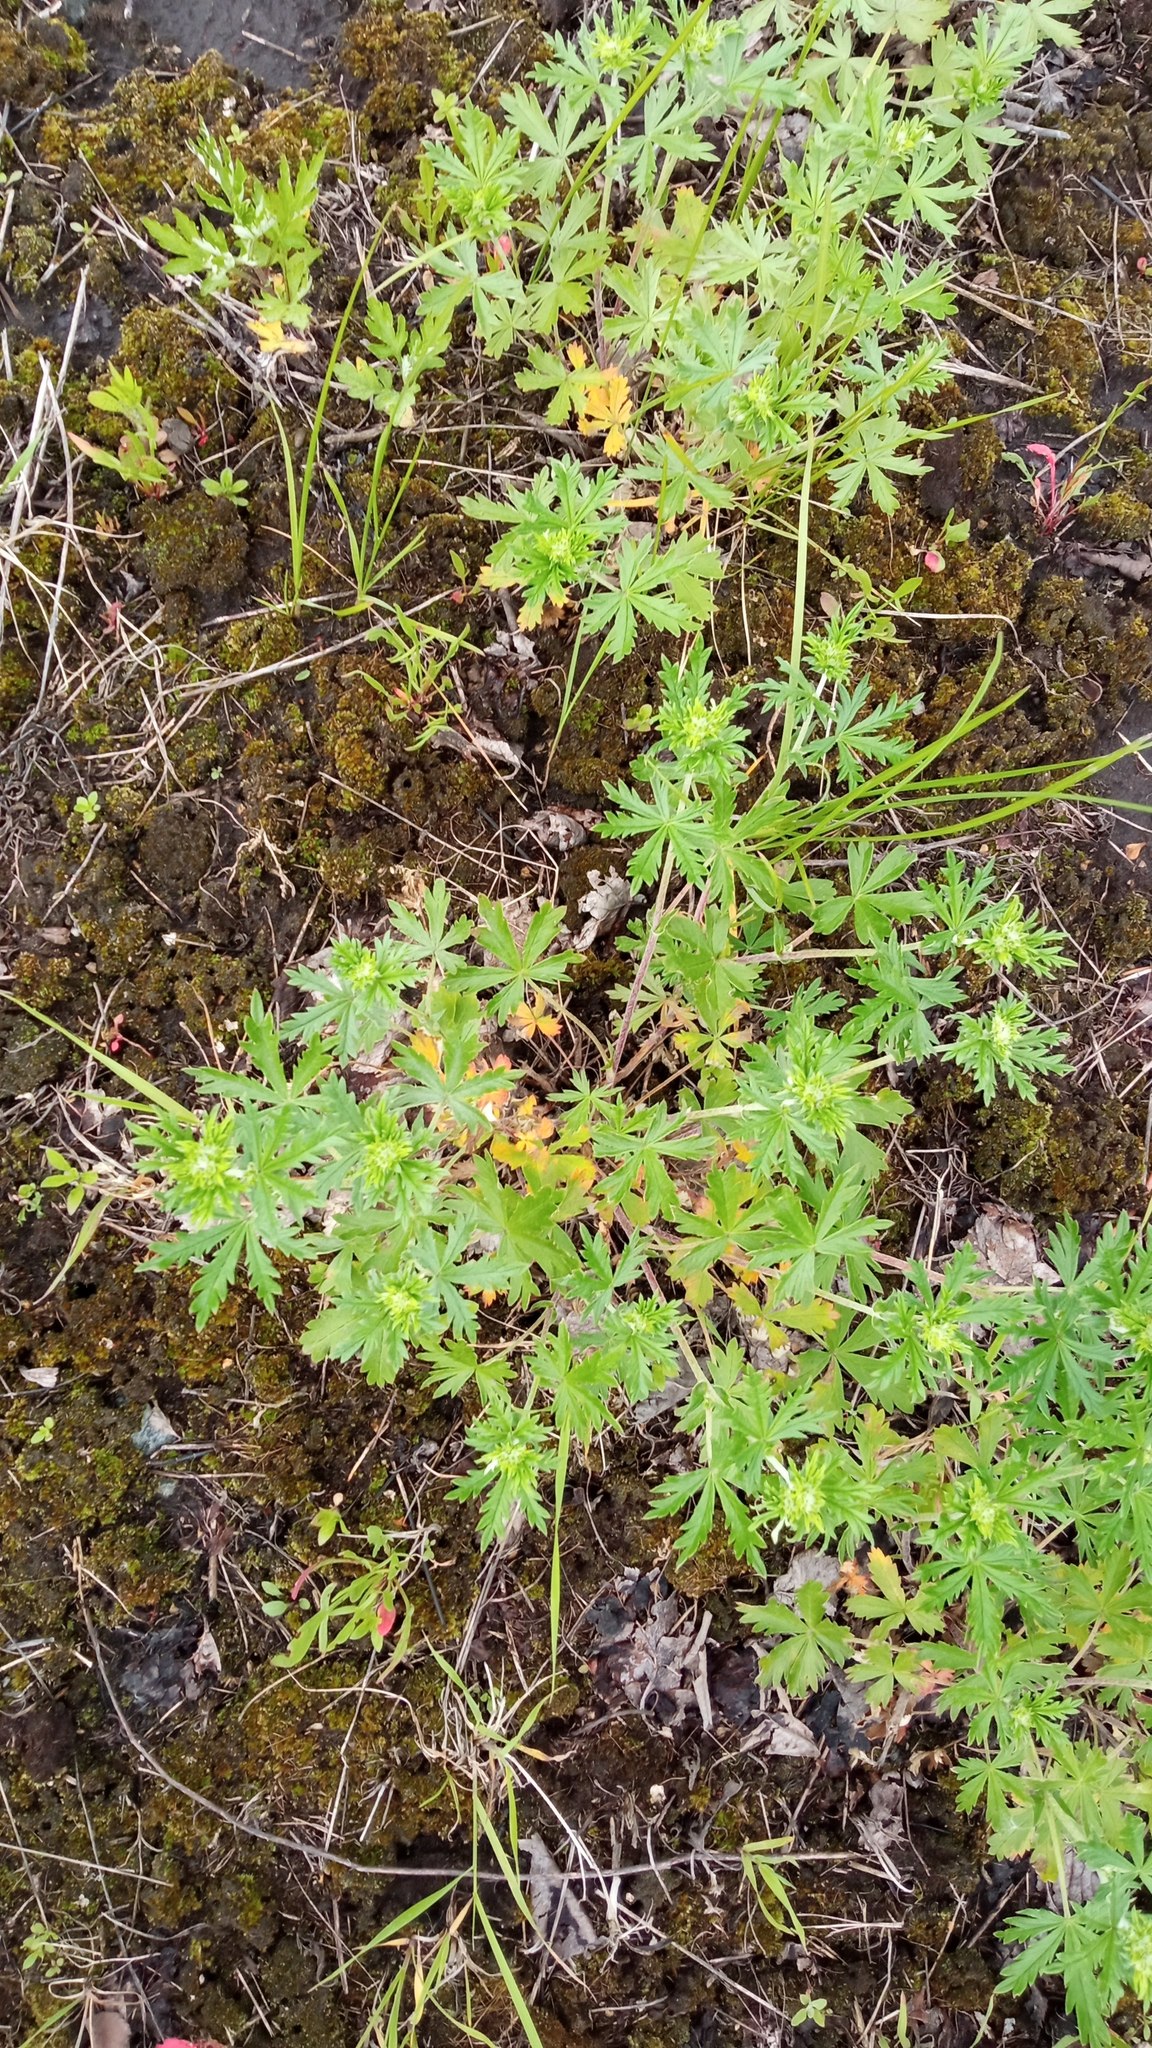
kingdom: Plantae
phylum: Tracheophyta
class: Magnoliopsida
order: Rosales
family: Rosaceae
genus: Potentilla
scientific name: Potentilla argentea
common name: Hoary cinquefoil
